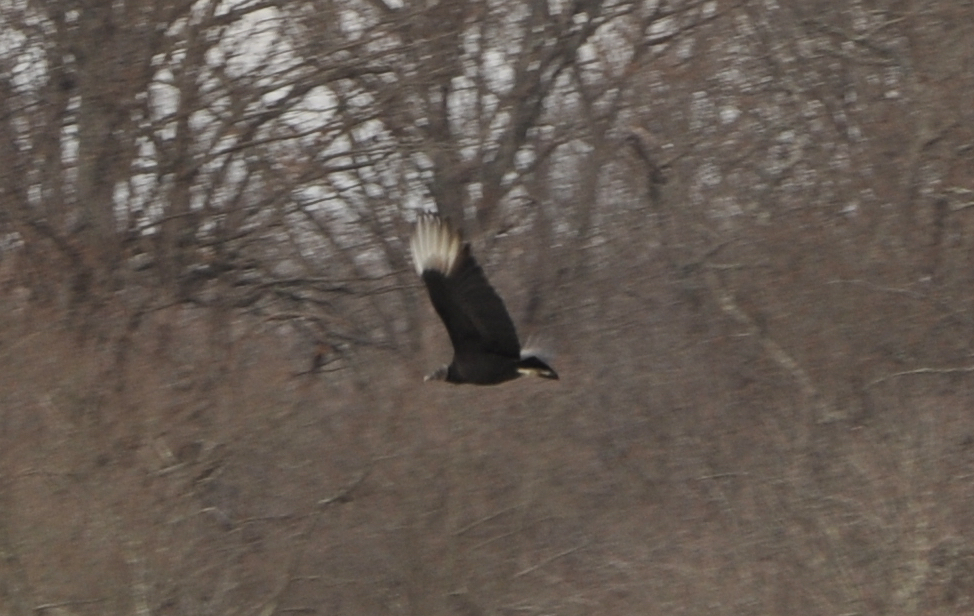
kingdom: Animalia
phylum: Chordata
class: Aves
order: Accipitriformes
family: Cathartidae
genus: Coragyps
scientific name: Coragyps atratus
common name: Black vulture
